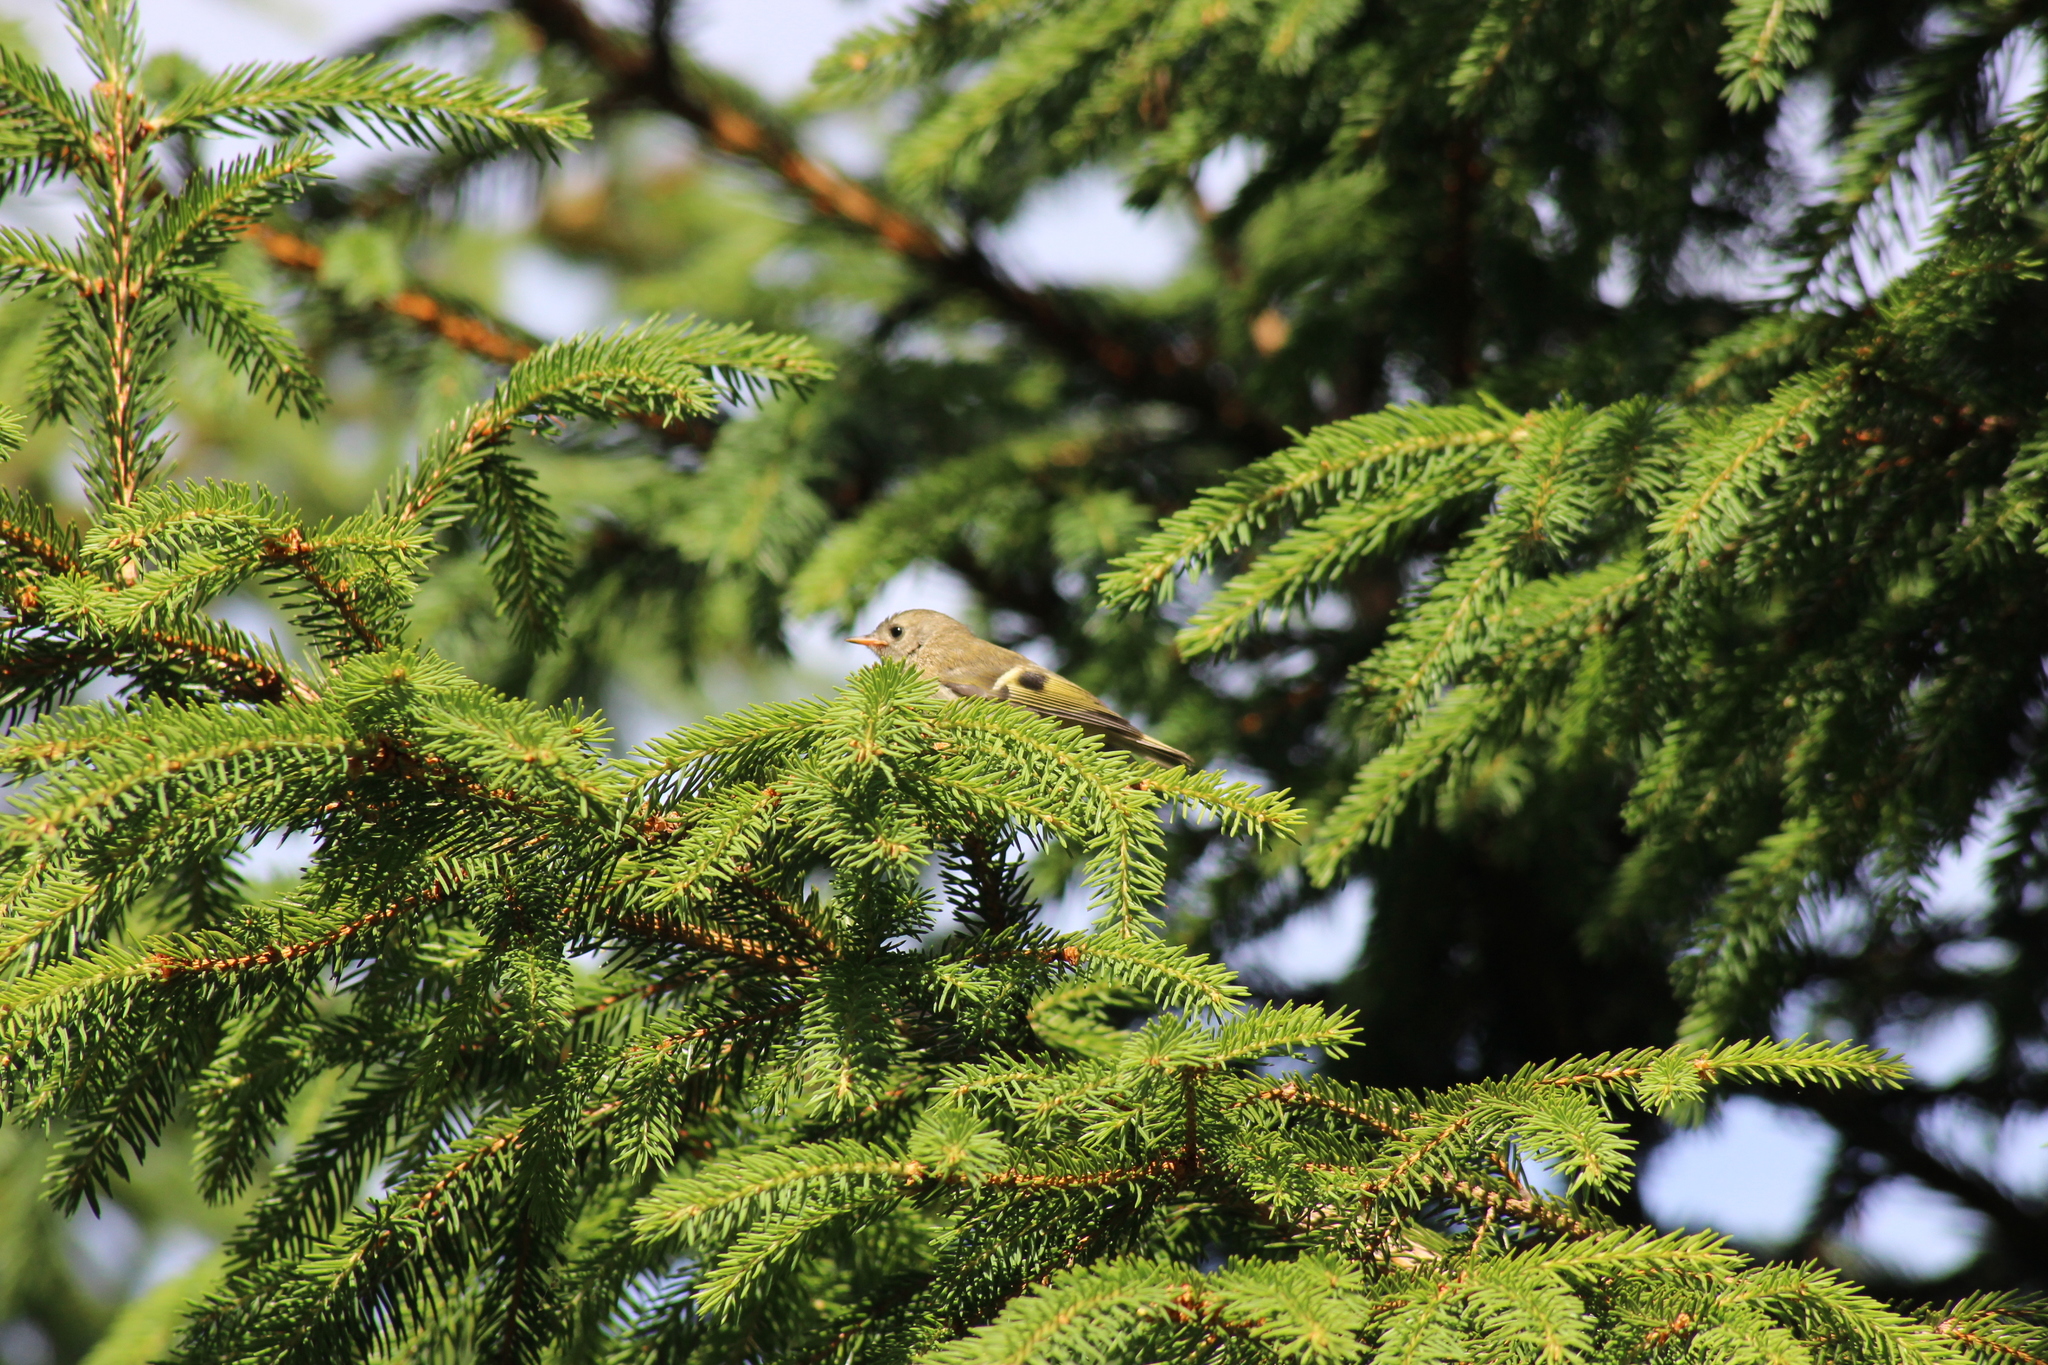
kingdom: Animalia
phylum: Chordata
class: Aves
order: Passeriformes
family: Regulidae
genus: Regulus
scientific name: Regulus regulus
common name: Goldcrest
